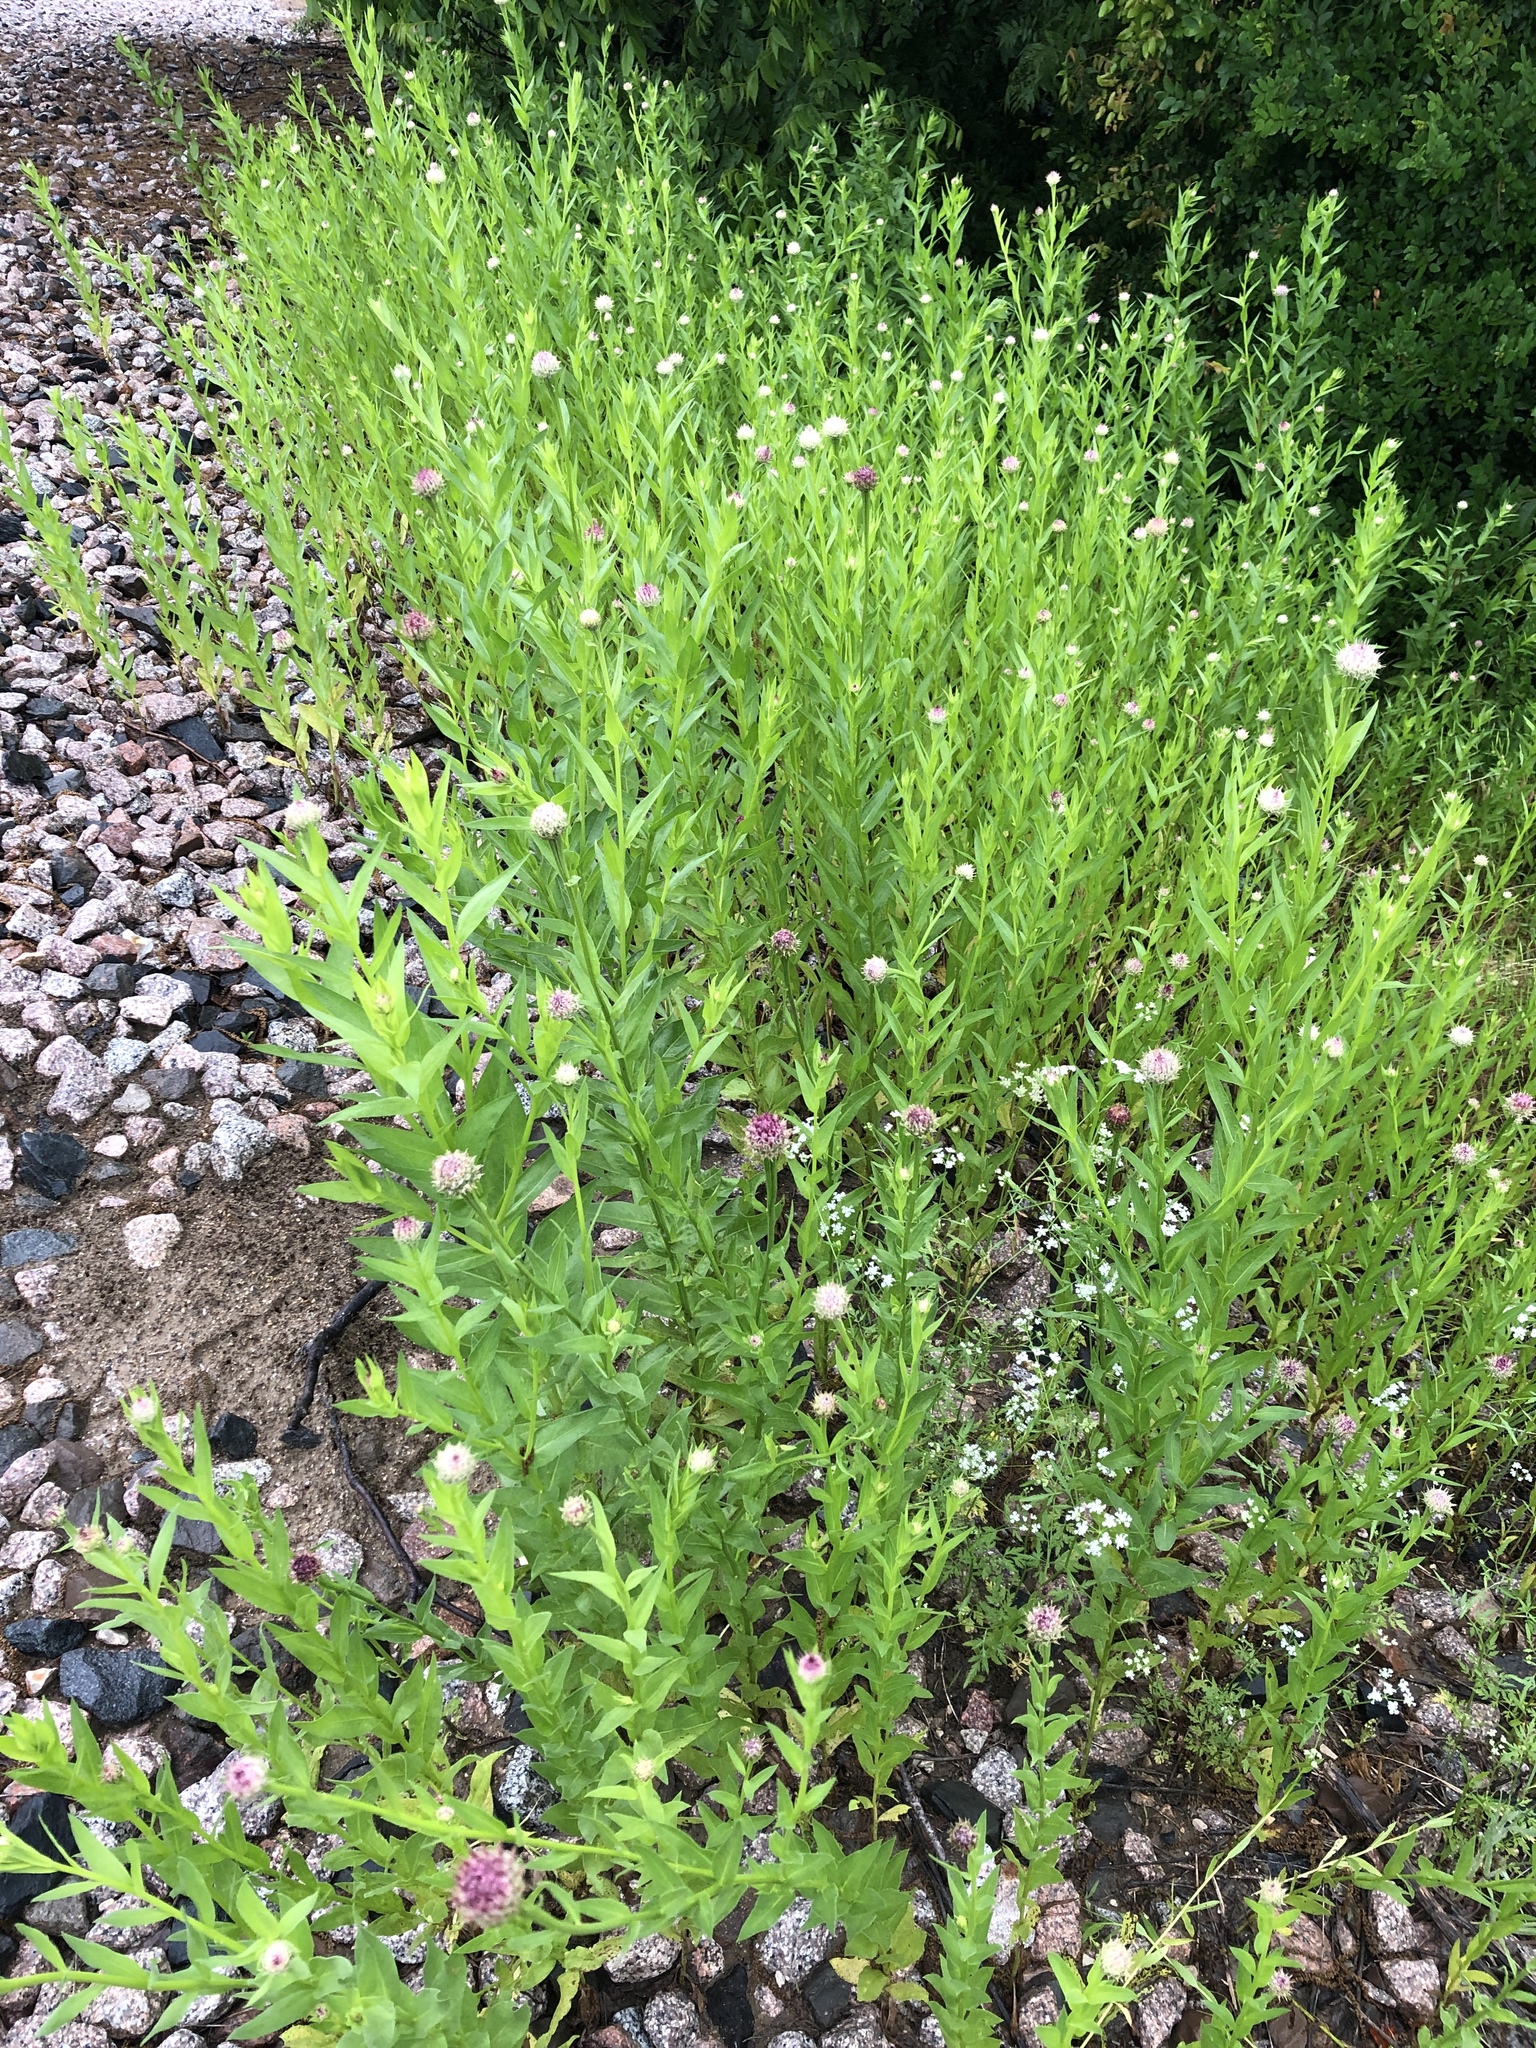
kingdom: Plantae
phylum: Tracheophyta
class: Magnoliopsida
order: Asterales
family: Asteraceae
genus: Plectocephalus
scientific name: Plectocephalus americanus
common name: American basket-flower
